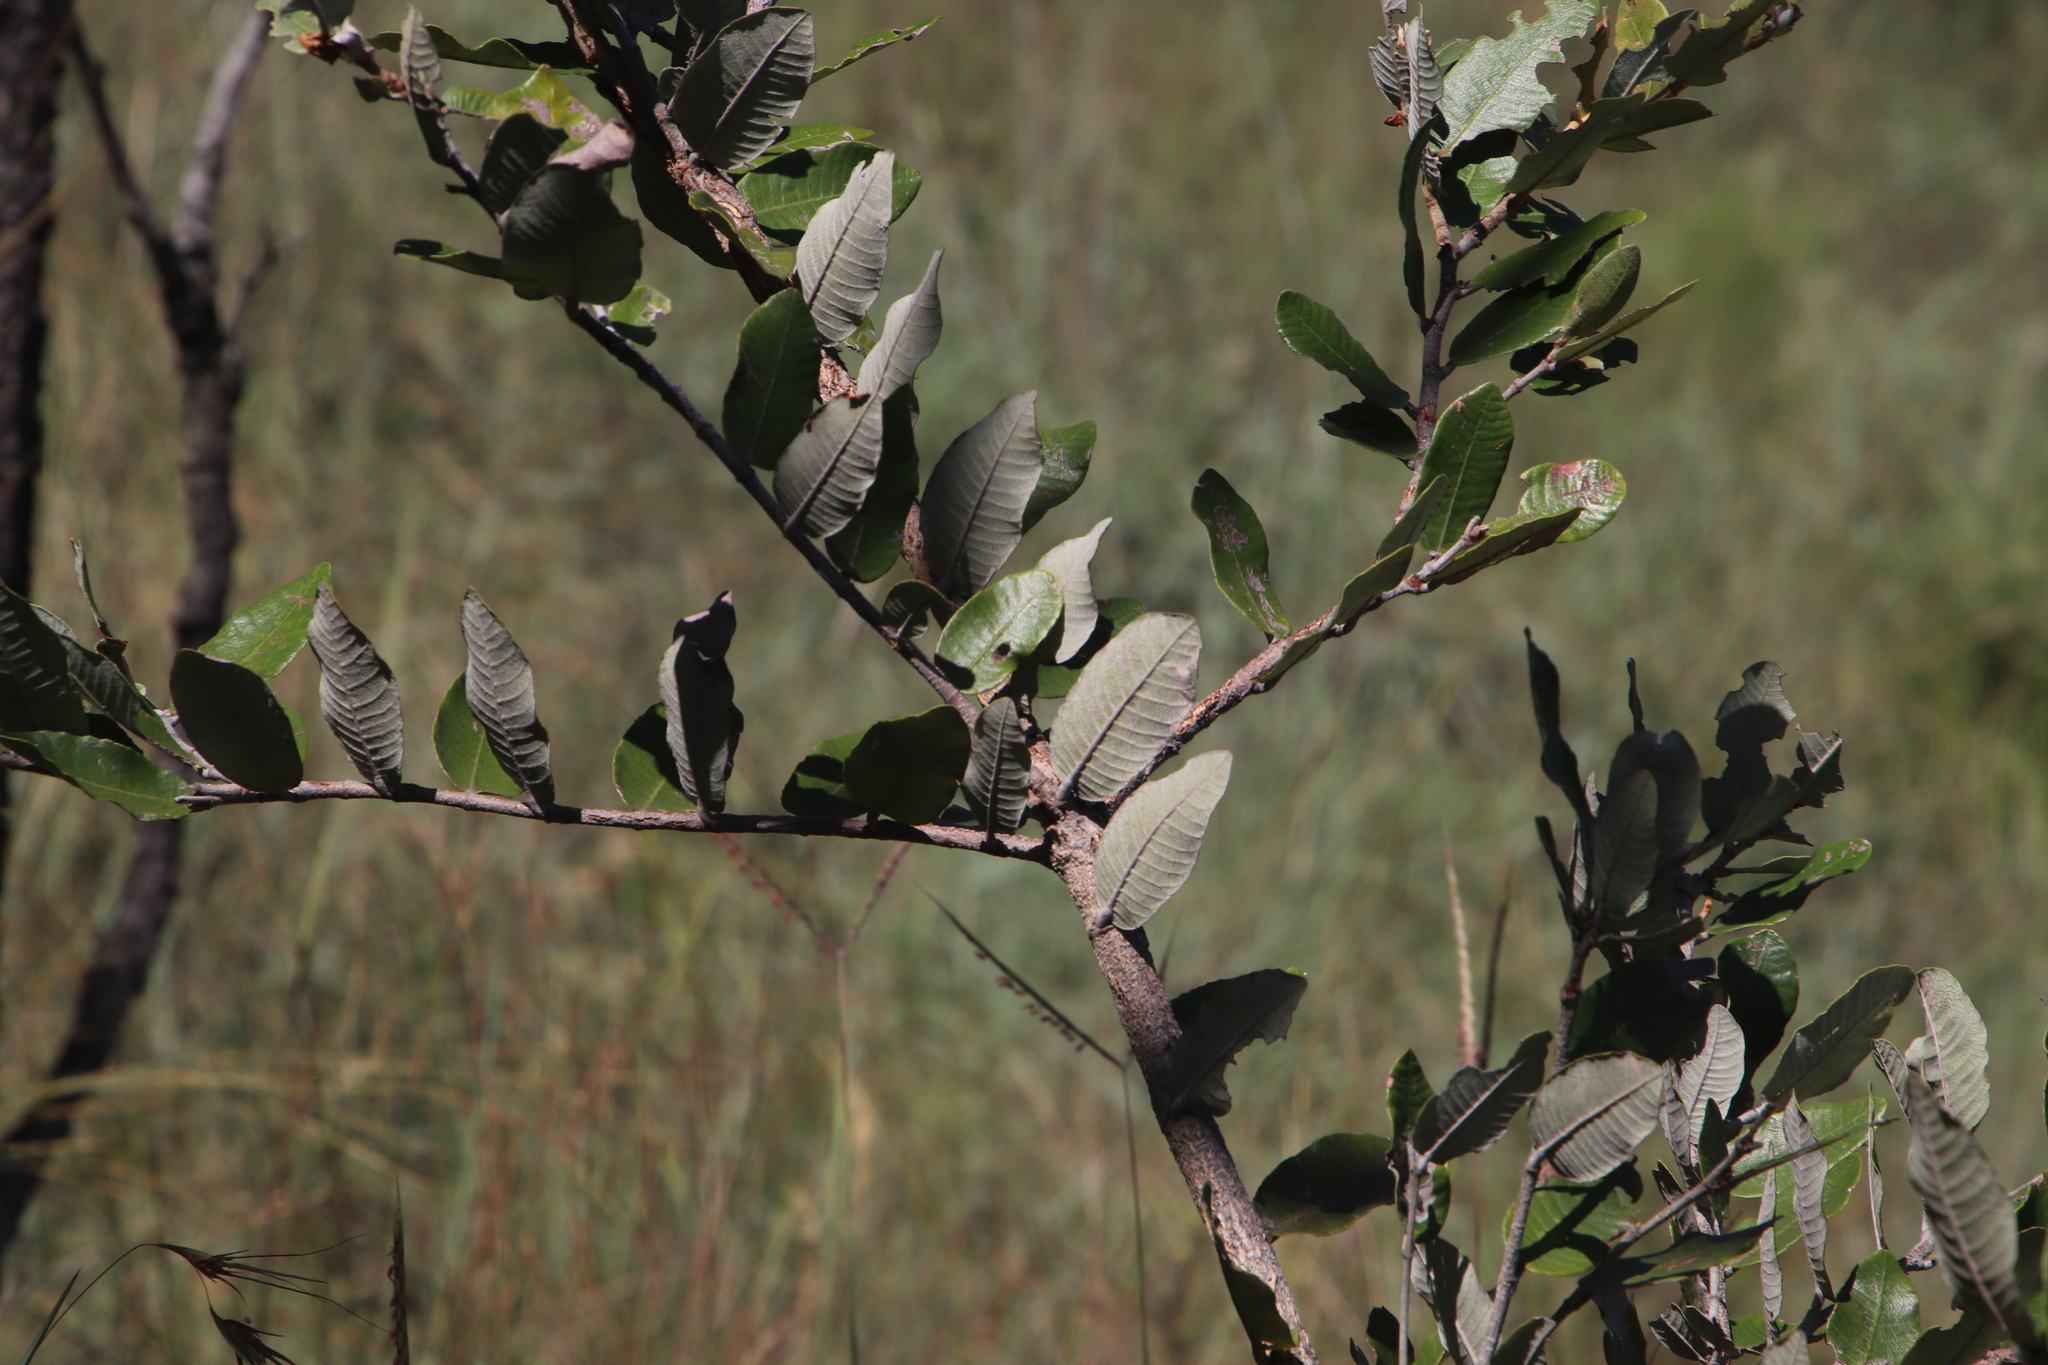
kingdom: Plantae
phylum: Tracheophyta
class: Magnoliopsida
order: Malpighiales
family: Chrysobalanaceae
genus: Parinari
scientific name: Parinari curatellifolia
